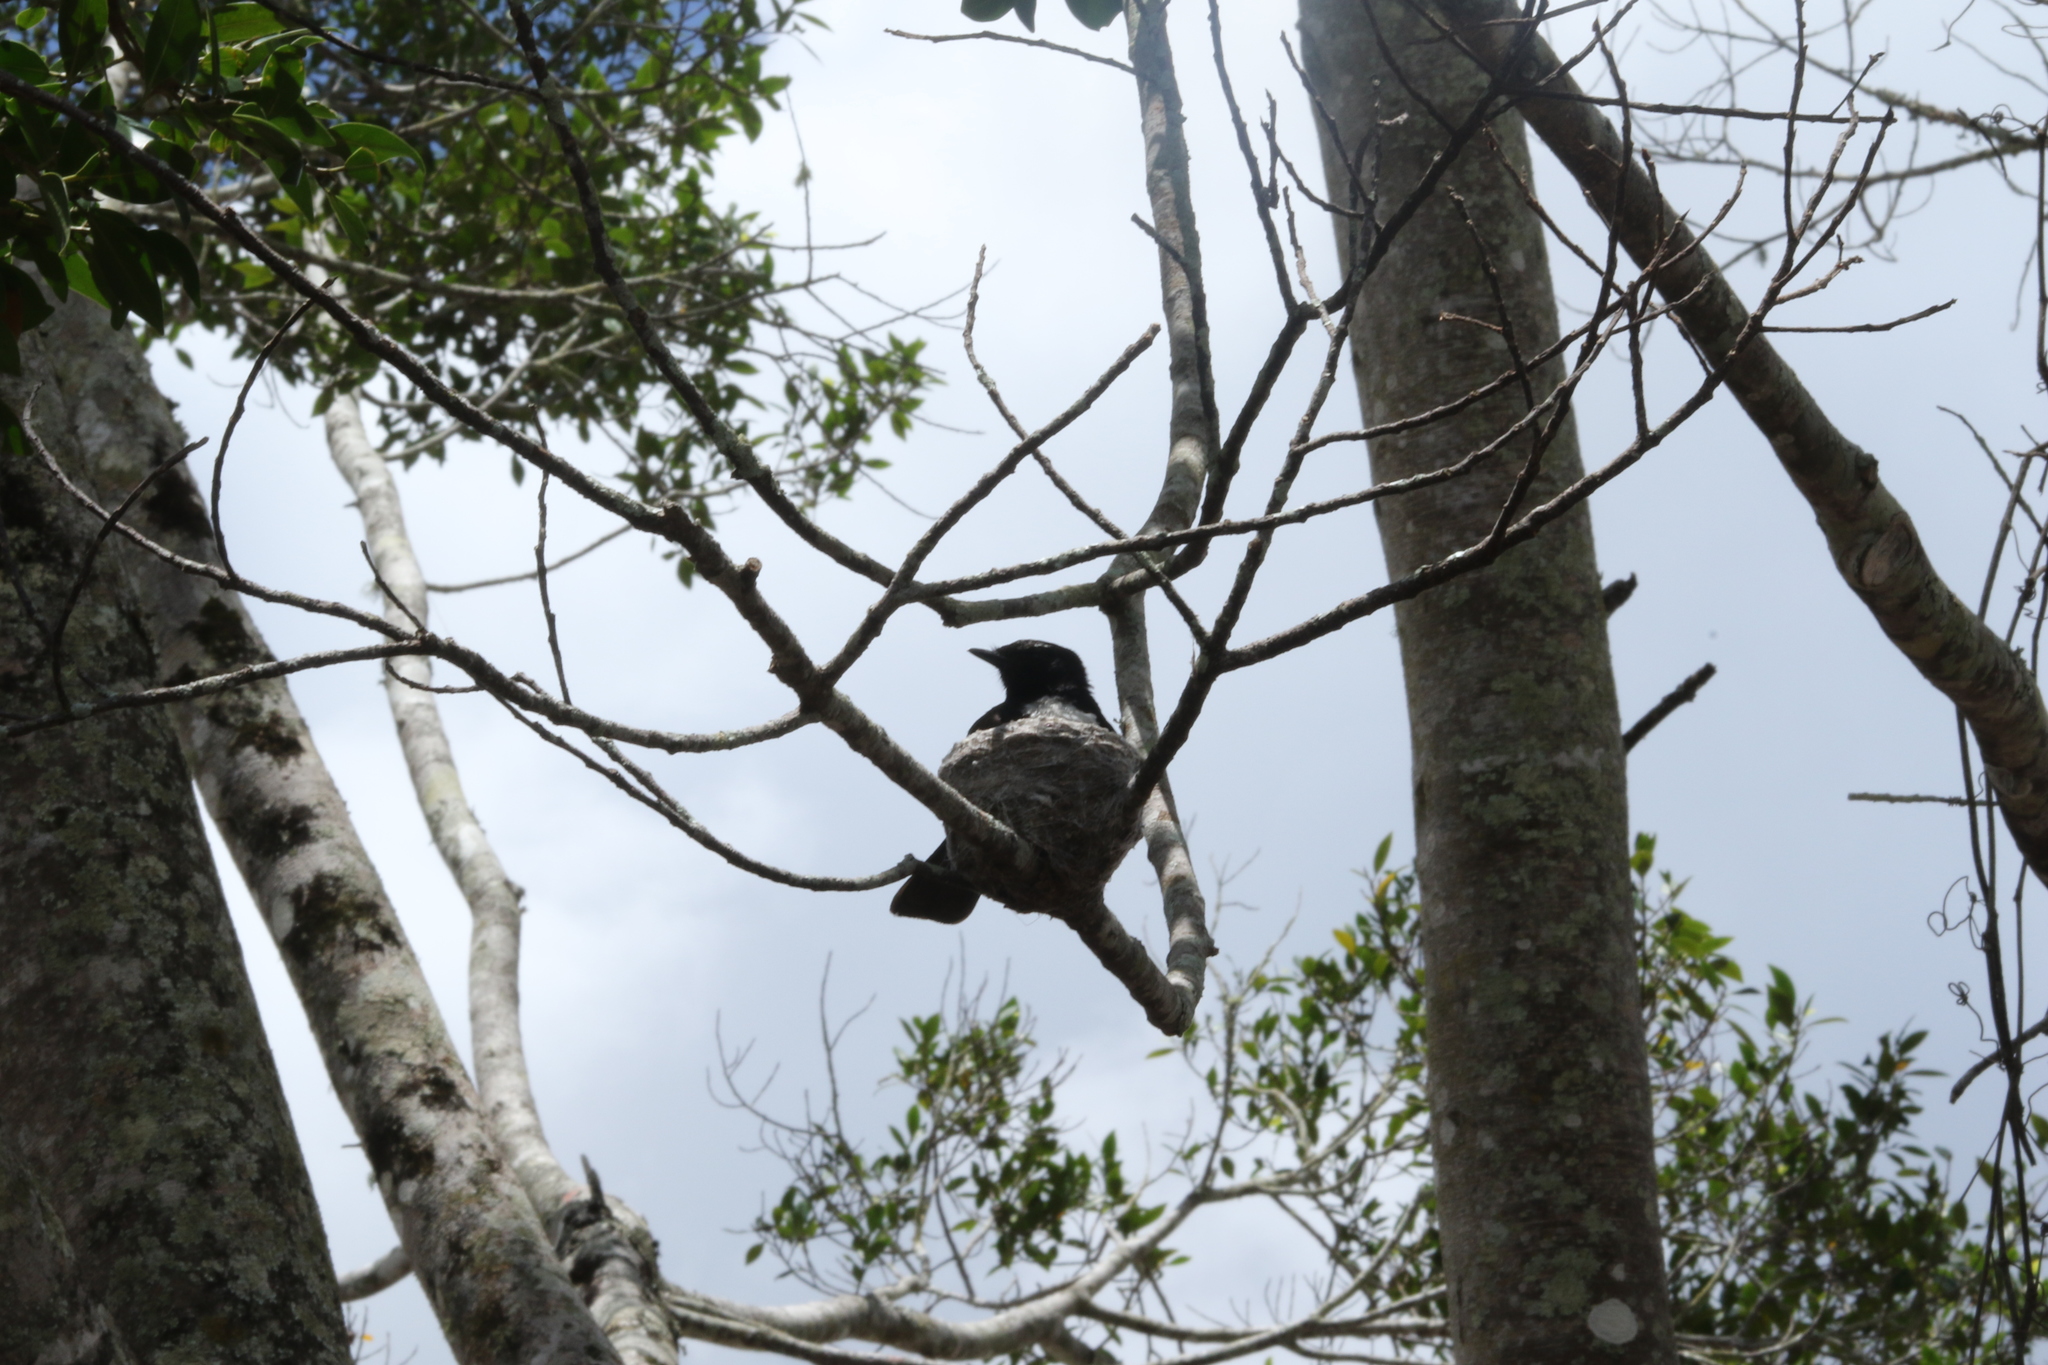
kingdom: Animalia
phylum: Chordata
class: Aves
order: Passeriformes
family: Rhipiduridae
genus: Rhipidura
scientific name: Rhipidura leucophrys
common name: Willie wagtail
